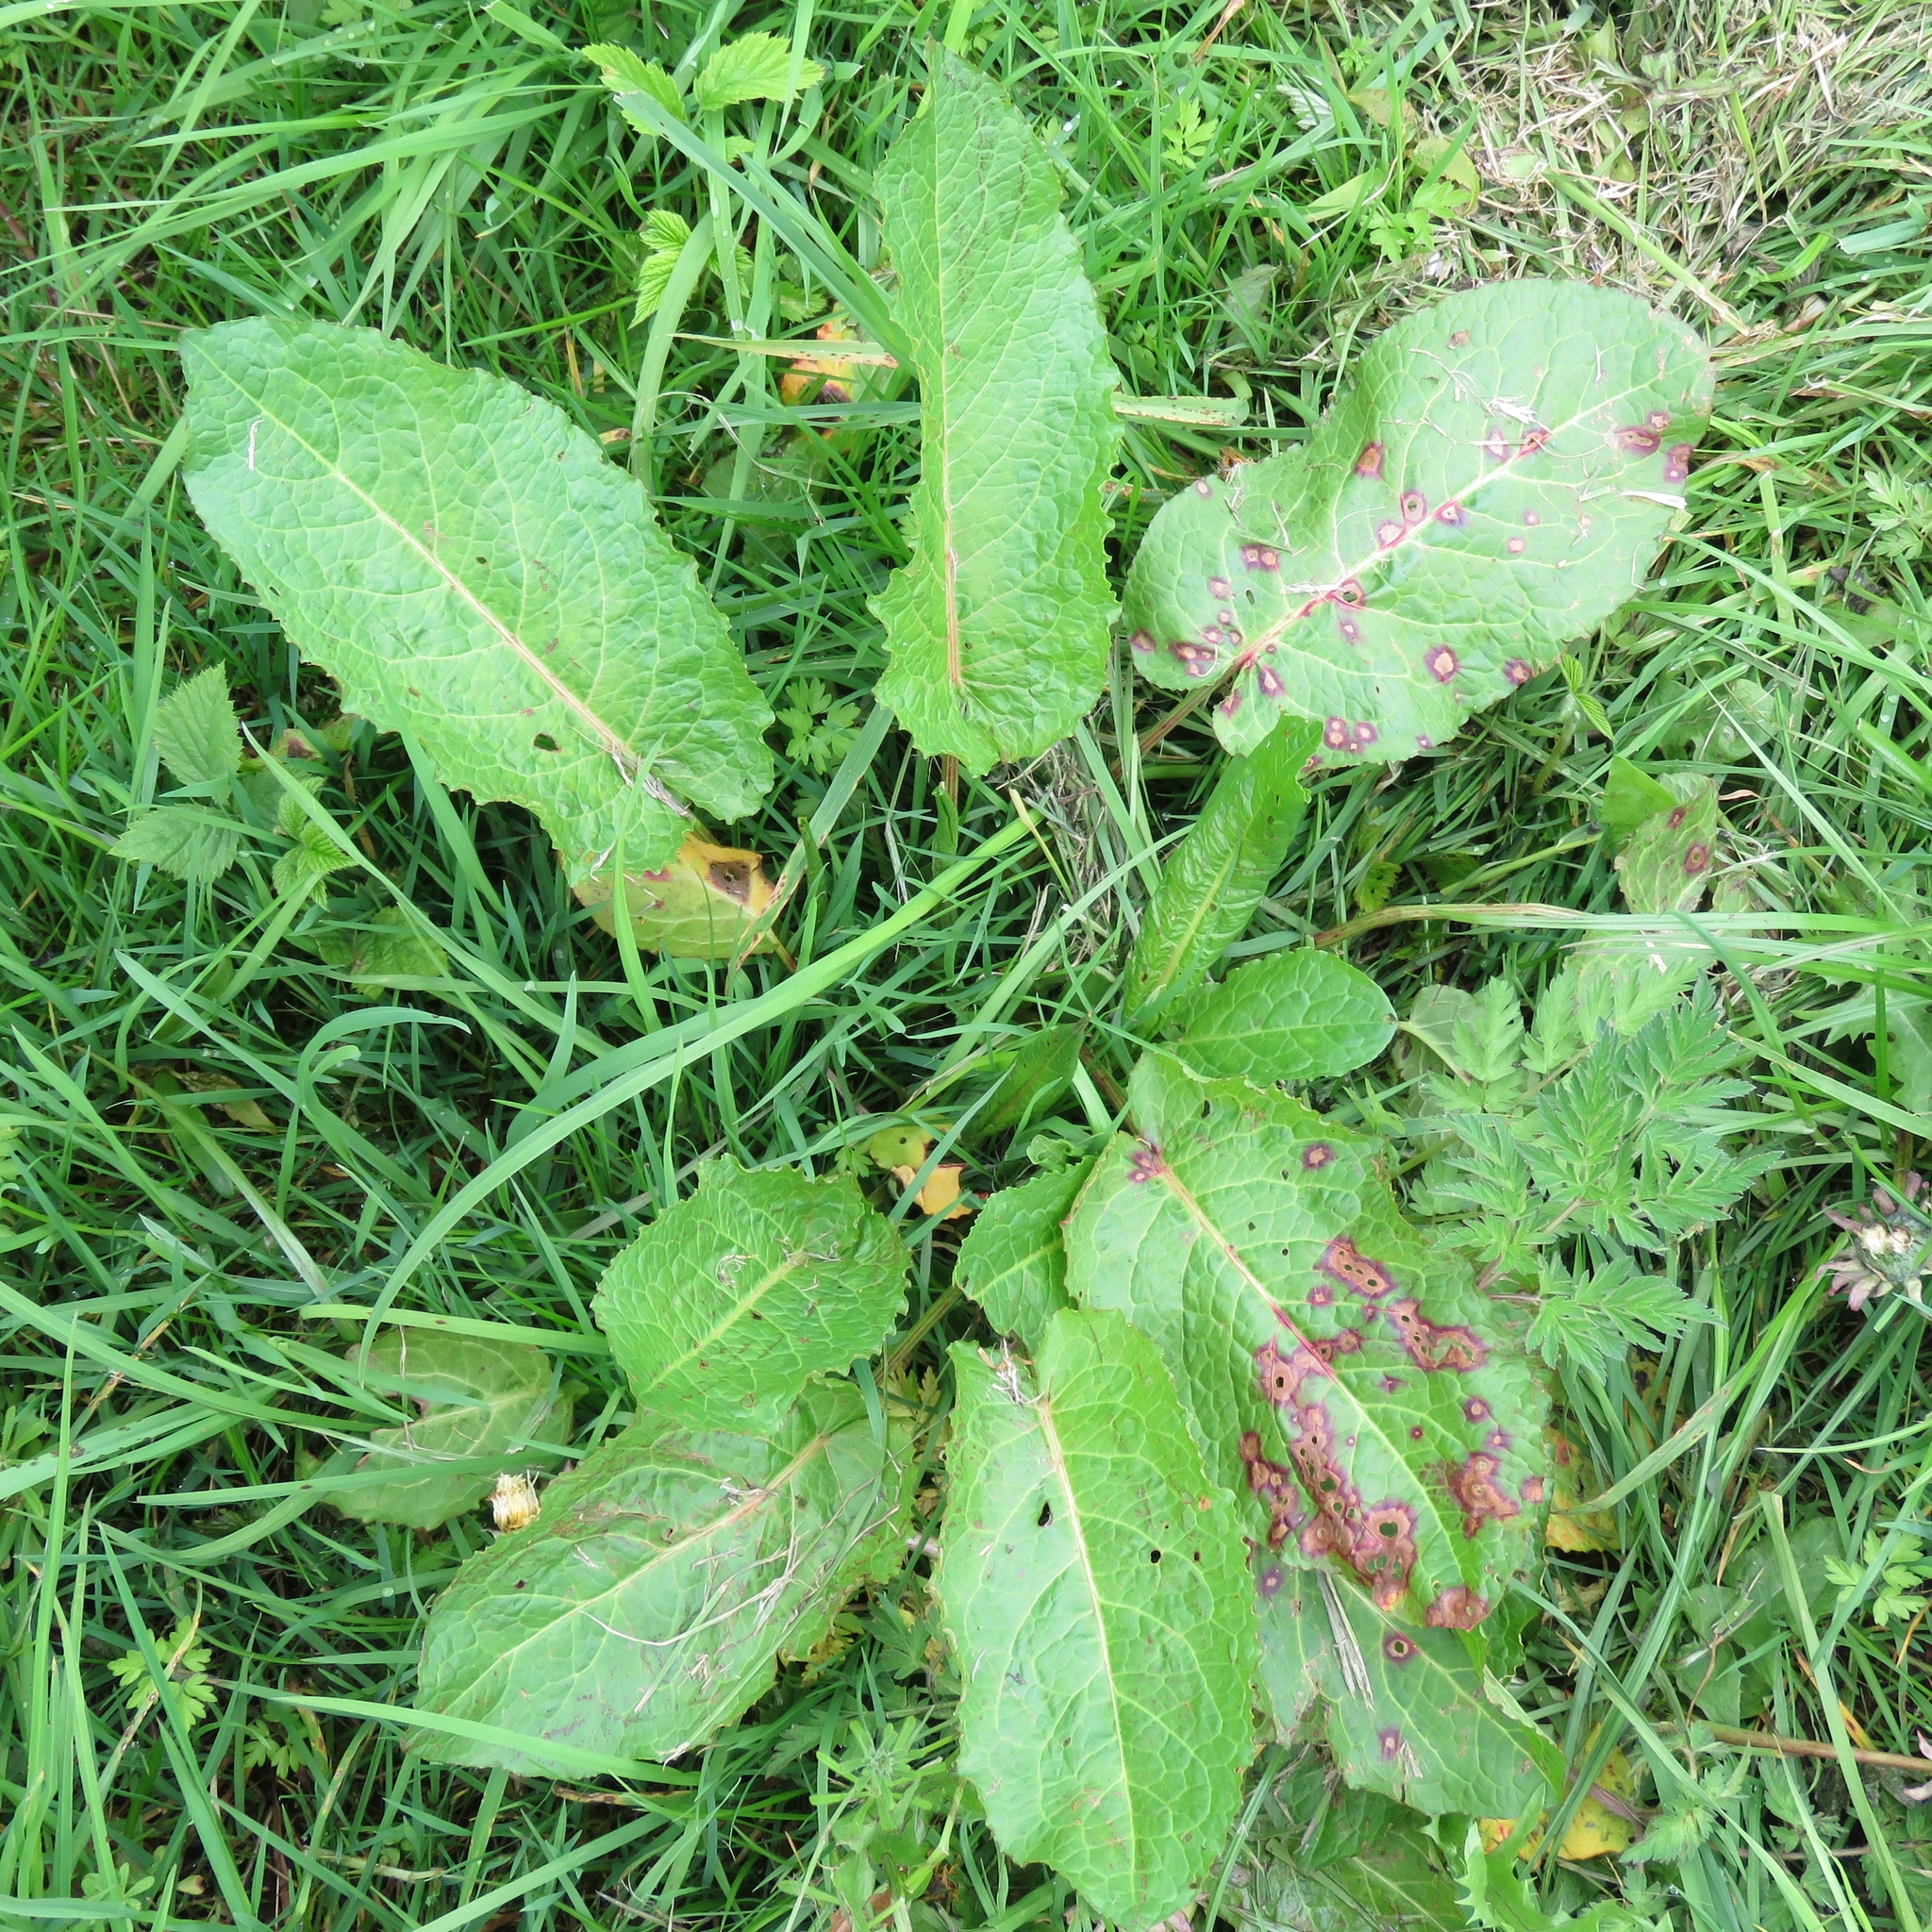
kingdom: Plantae
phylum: Tracheophyta
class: Magnoliopsida
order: Caryophyllales
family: Polygonaceae
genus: Rumex
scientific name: Rumex obtusifolius
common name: Bitter dock
